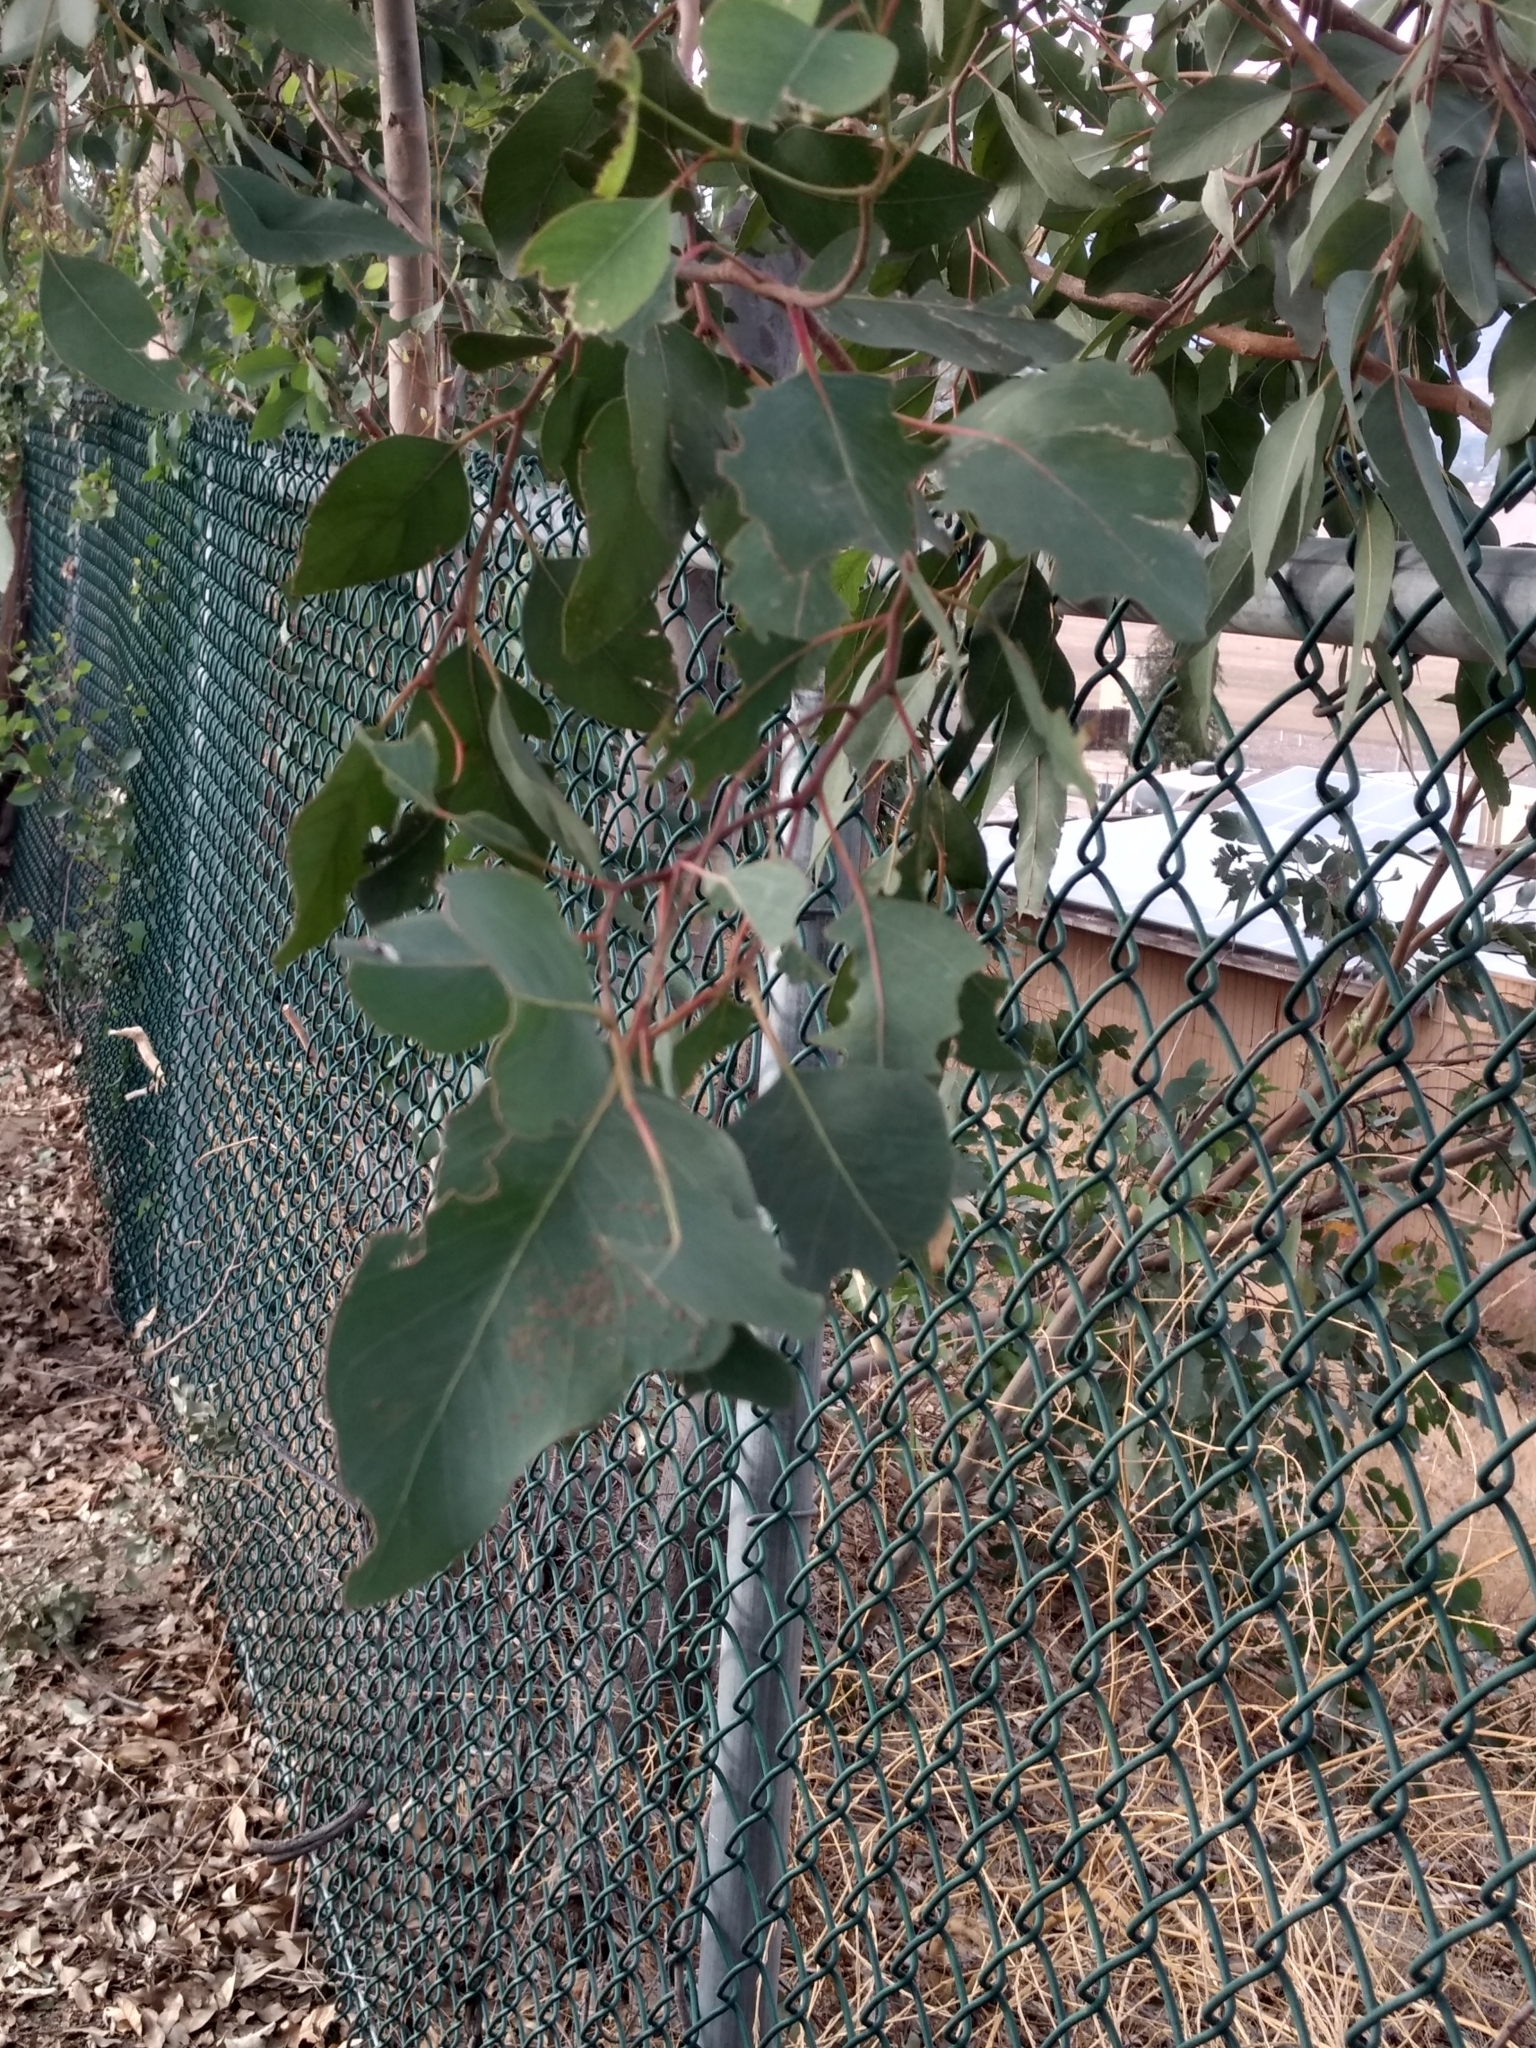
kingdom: Animalia
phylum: Arthropoda
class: Insecta
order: Hymenoptera
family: Eulophidae
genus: Ophelimus
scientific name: Ophelimus maskelli
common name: Gall wasp
